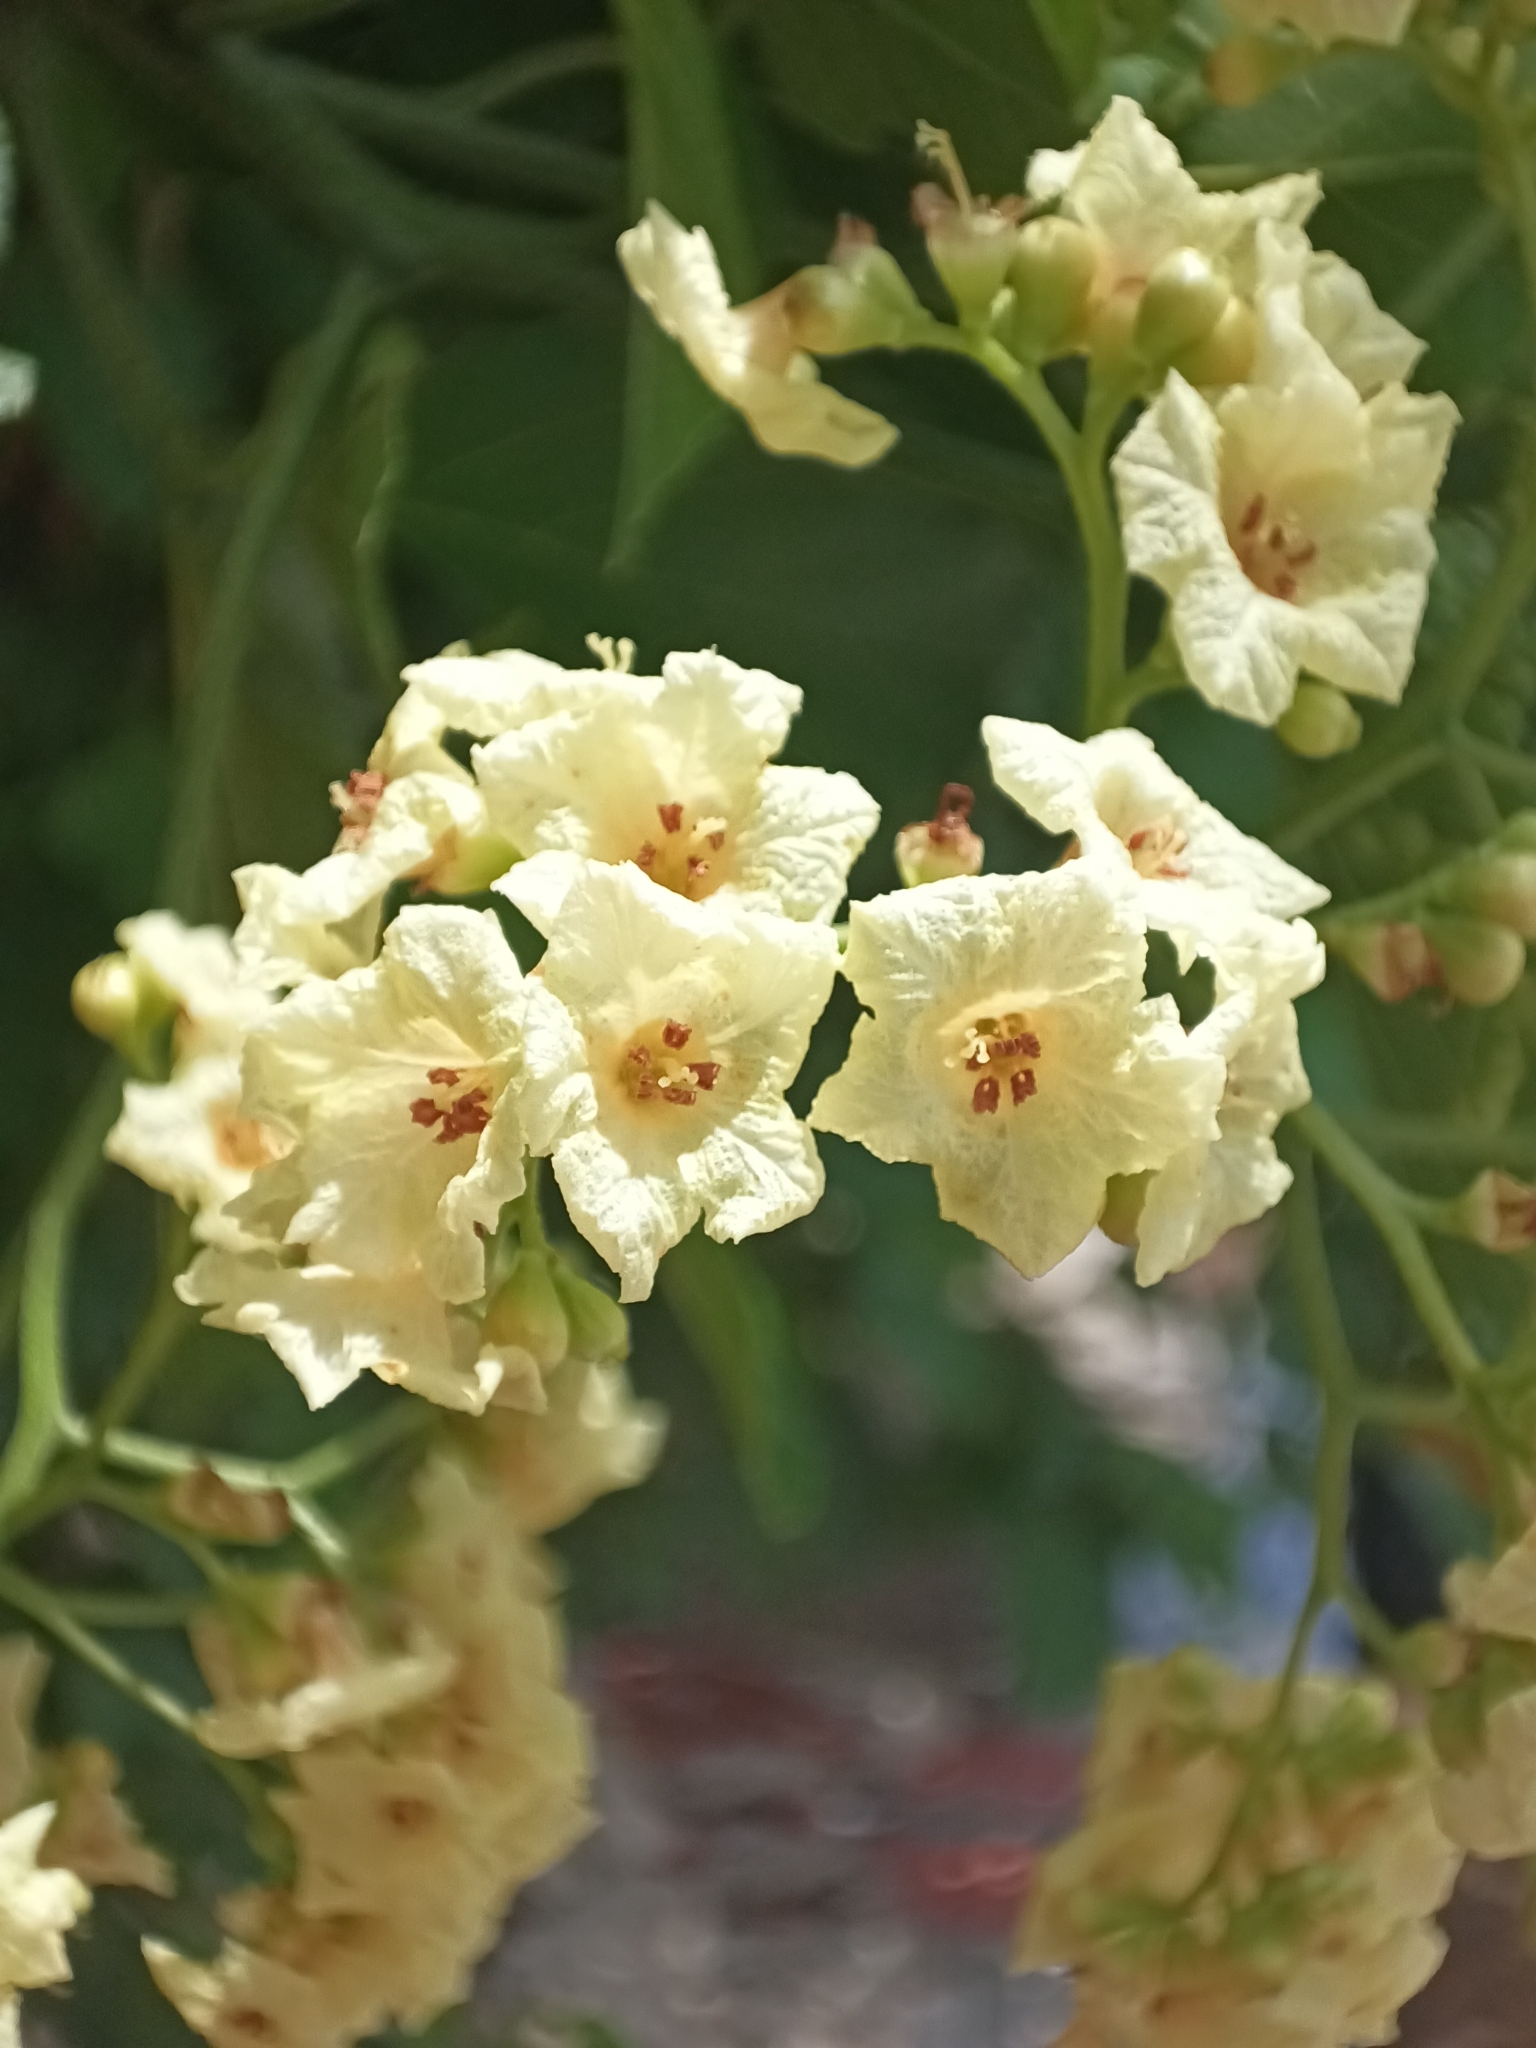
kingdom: Plantae
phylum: Tracheophyta
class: Magnoliopsida
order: Boraginales
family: Cordiaceae
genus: Cordia
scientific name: Cordia dentata
